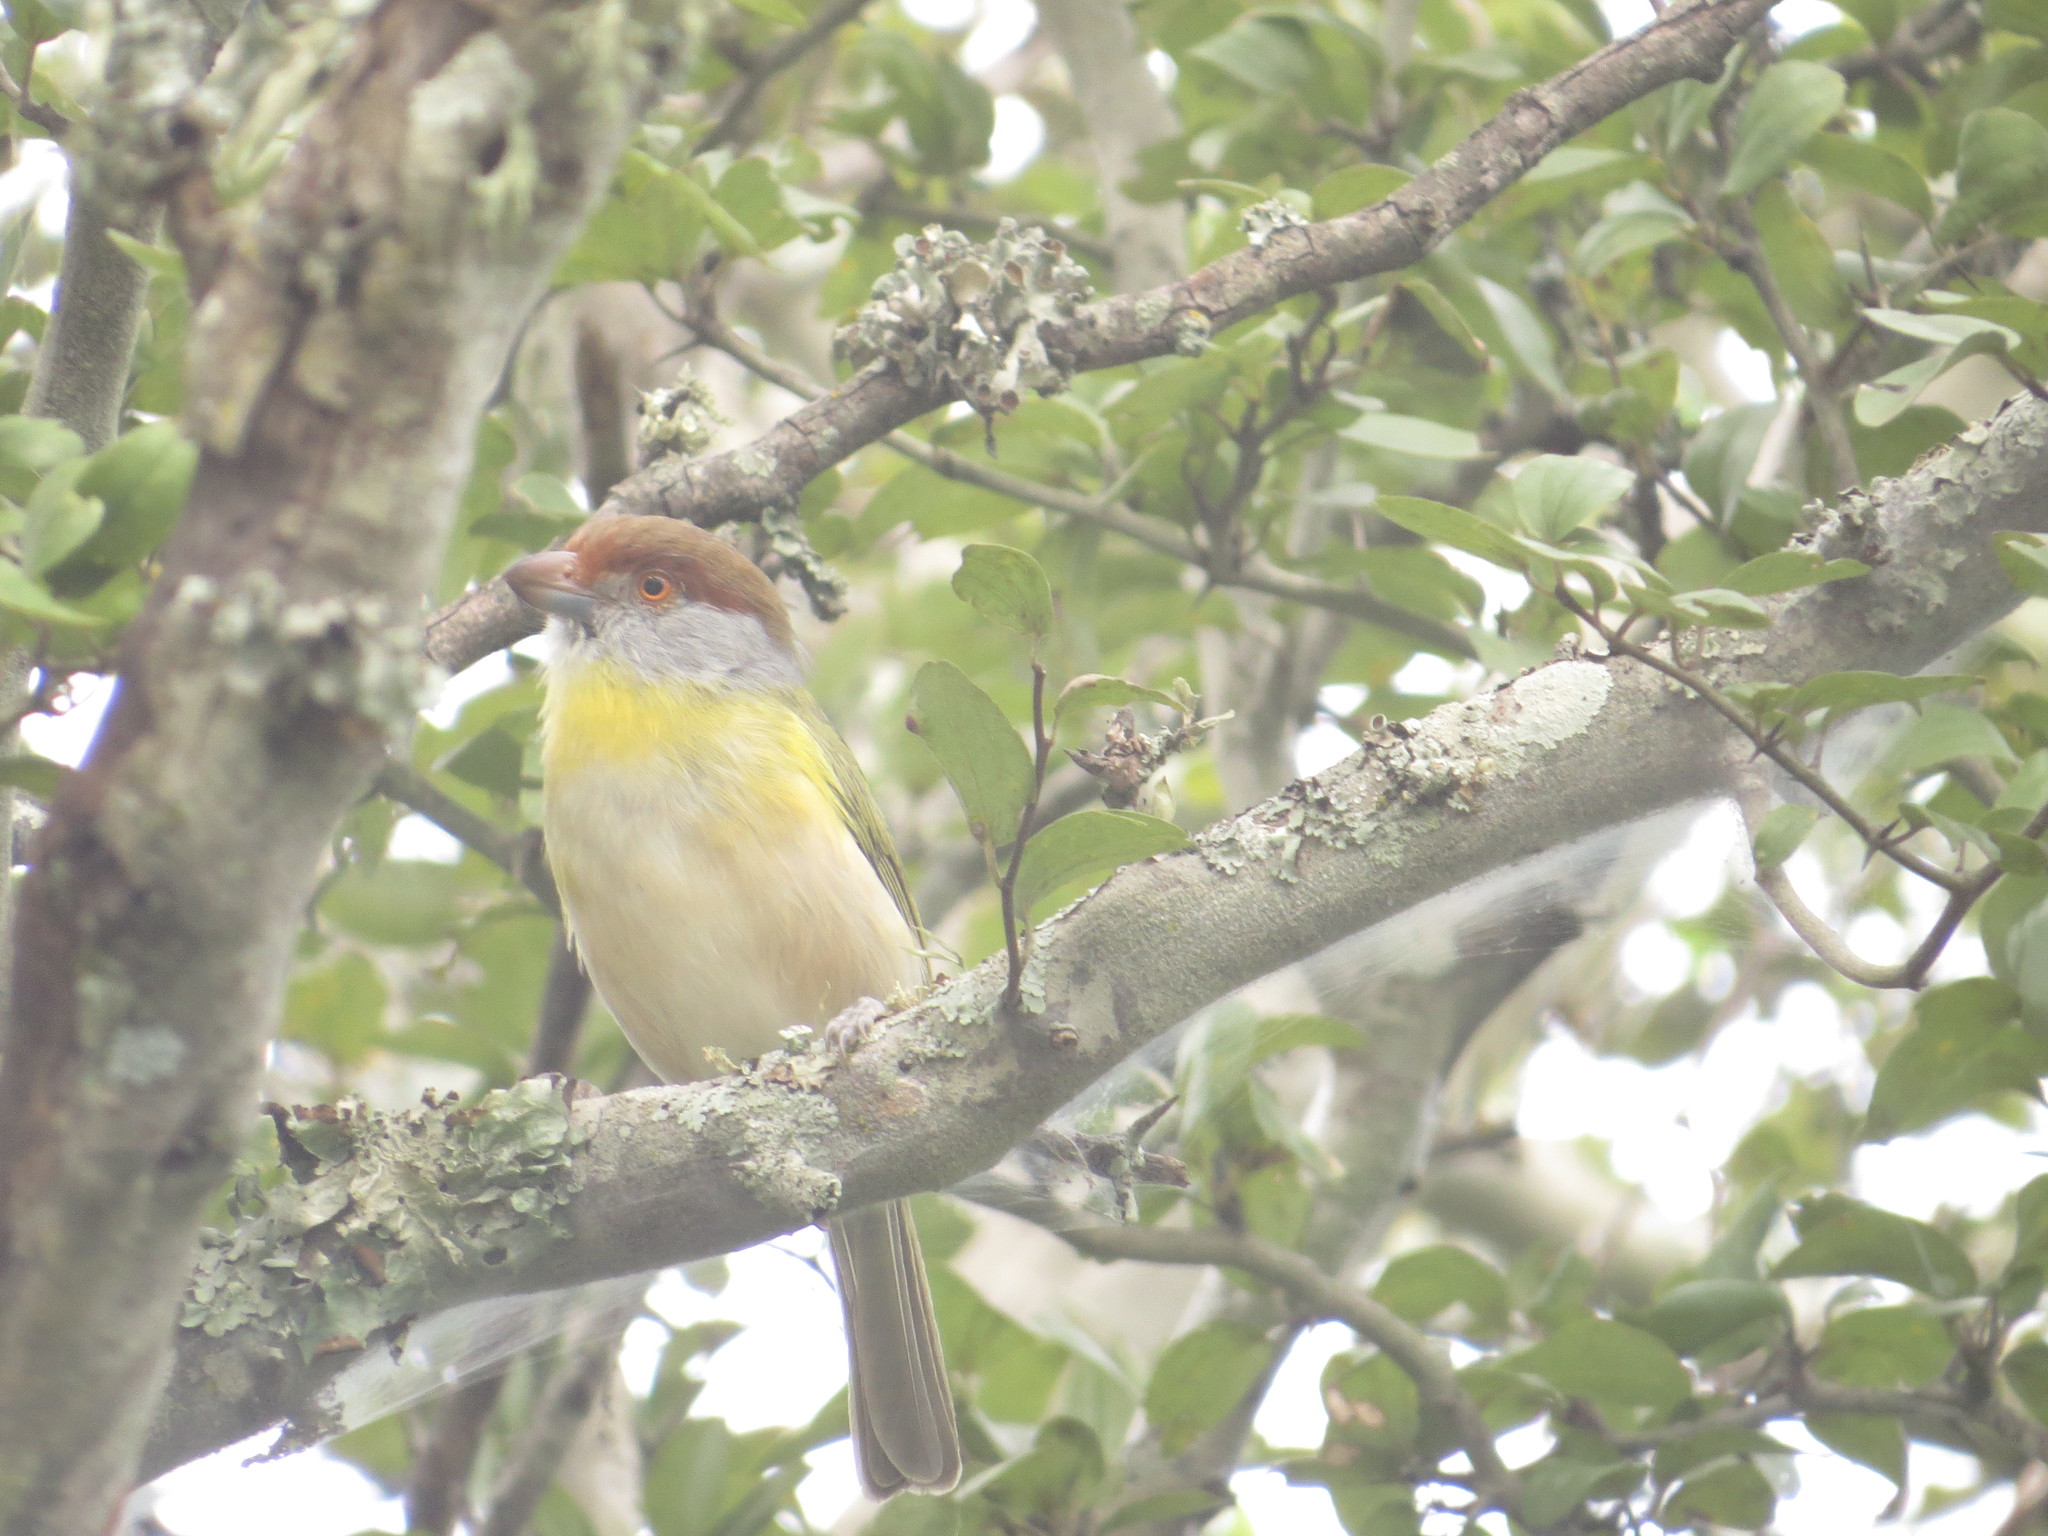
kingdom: Animalia
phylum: Chordata
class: Aves
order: Passeriformes
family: Vireonidae
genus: Cyclarhis
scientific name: Cyclarhis gujanensis
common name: Rufous-browed peppershrike
